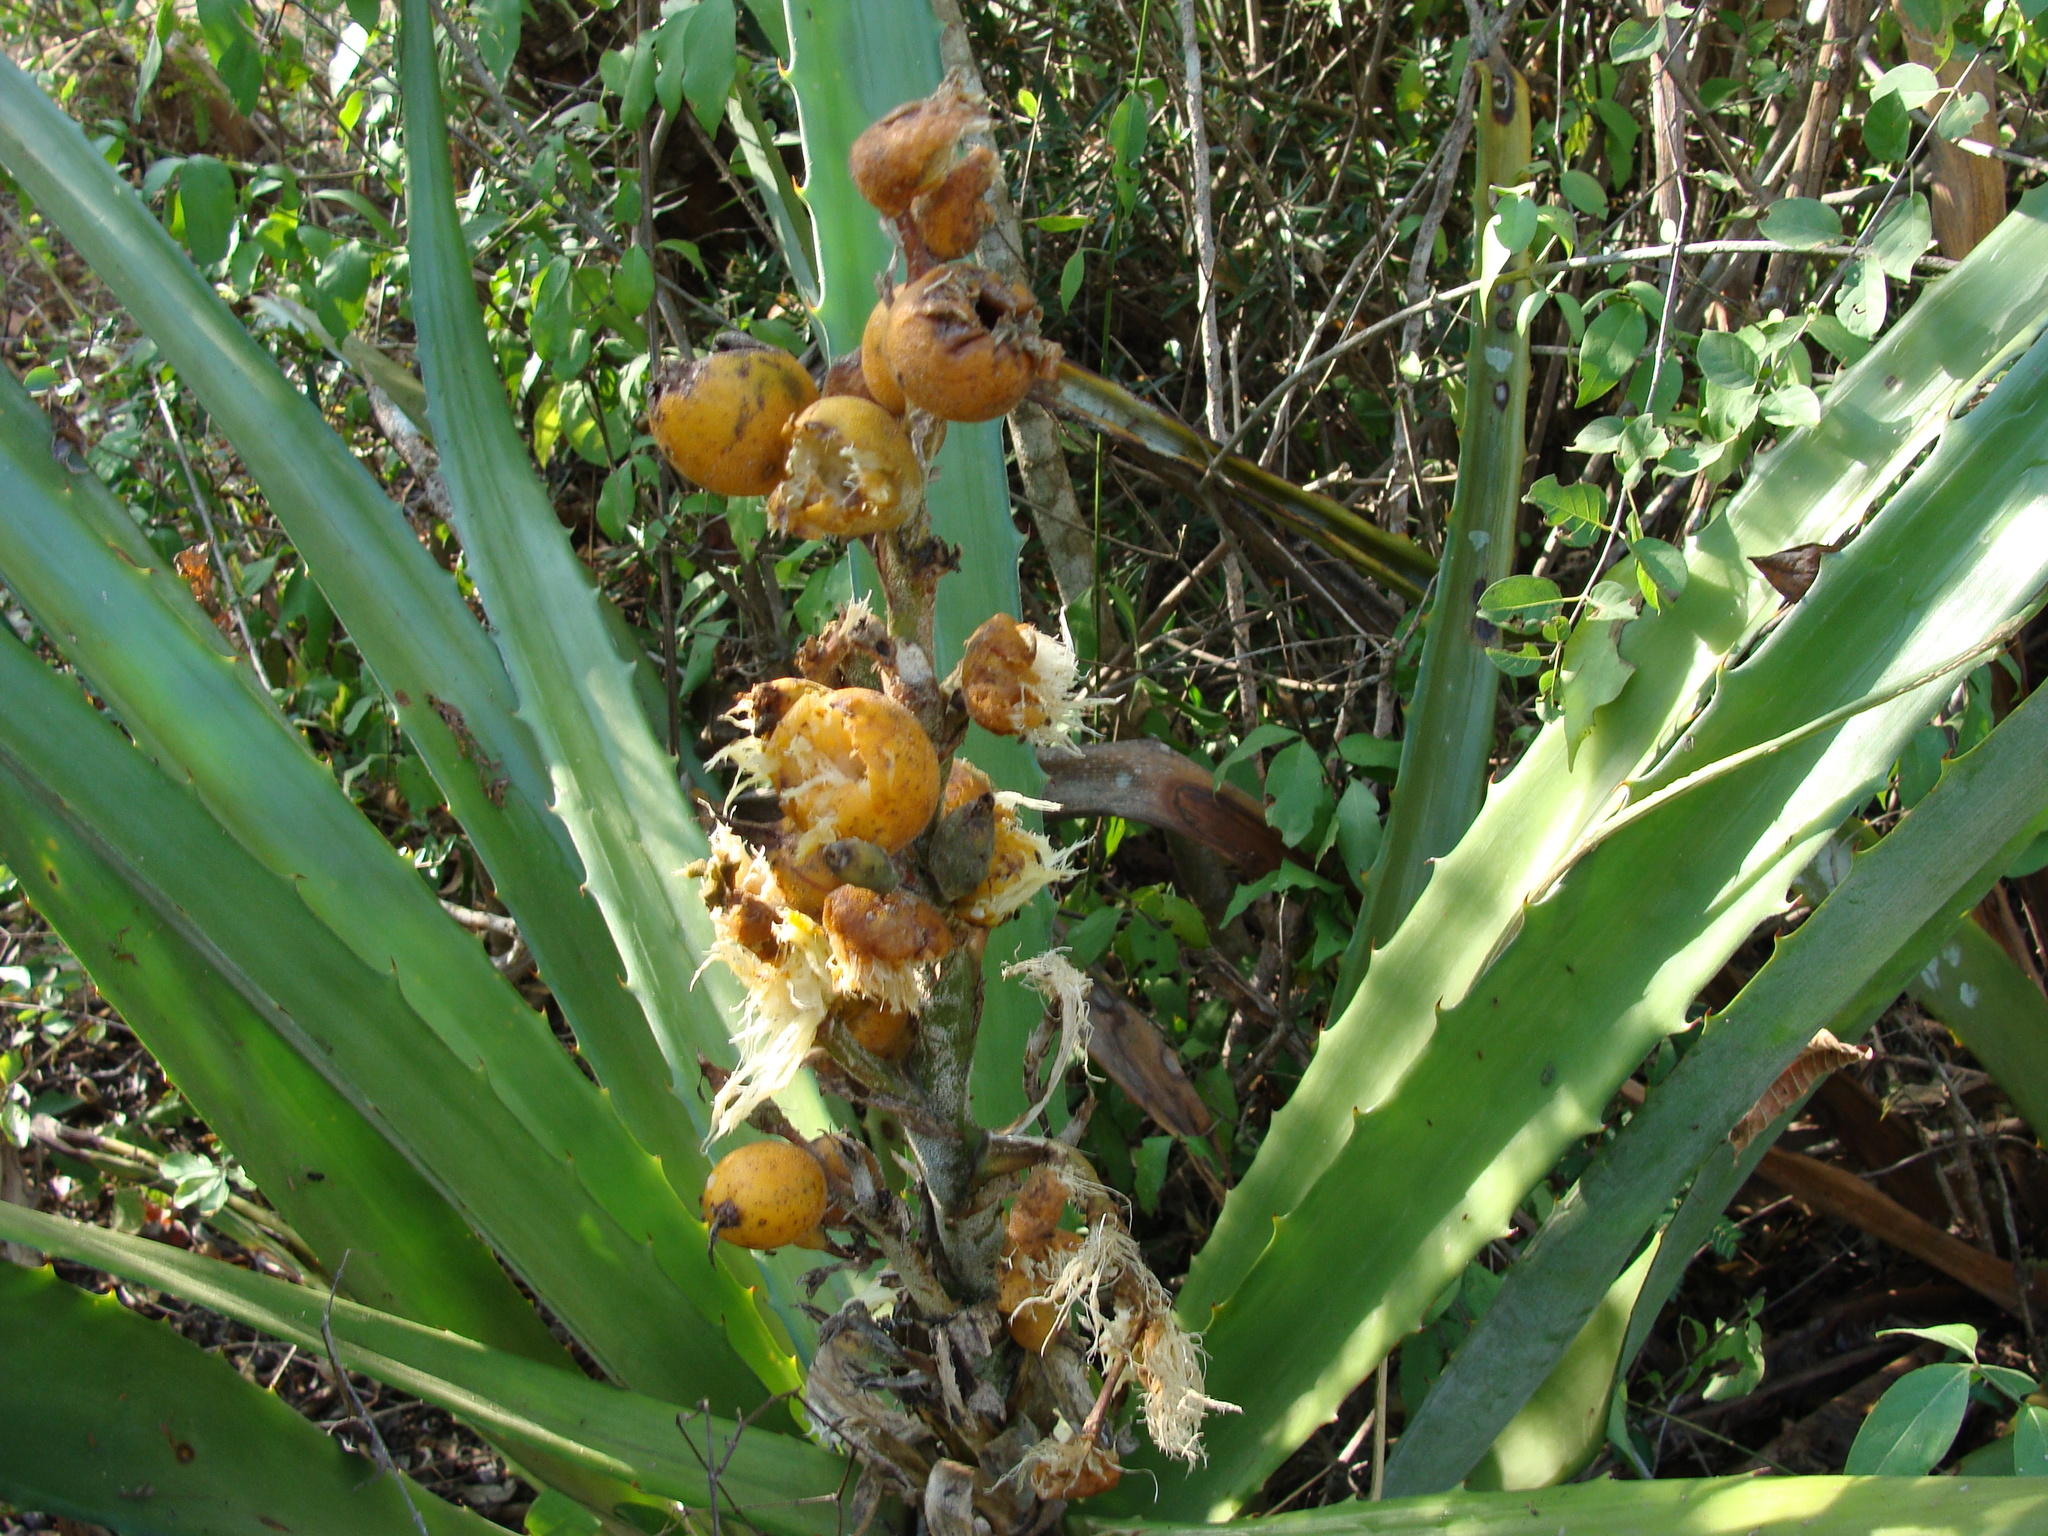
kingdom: Plantae
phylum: Tracheophyta
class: Liliopsida
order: Poales
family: Bromeliaceae
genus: Bromelia
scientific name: Bromelia pinguin
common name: Pinguin
